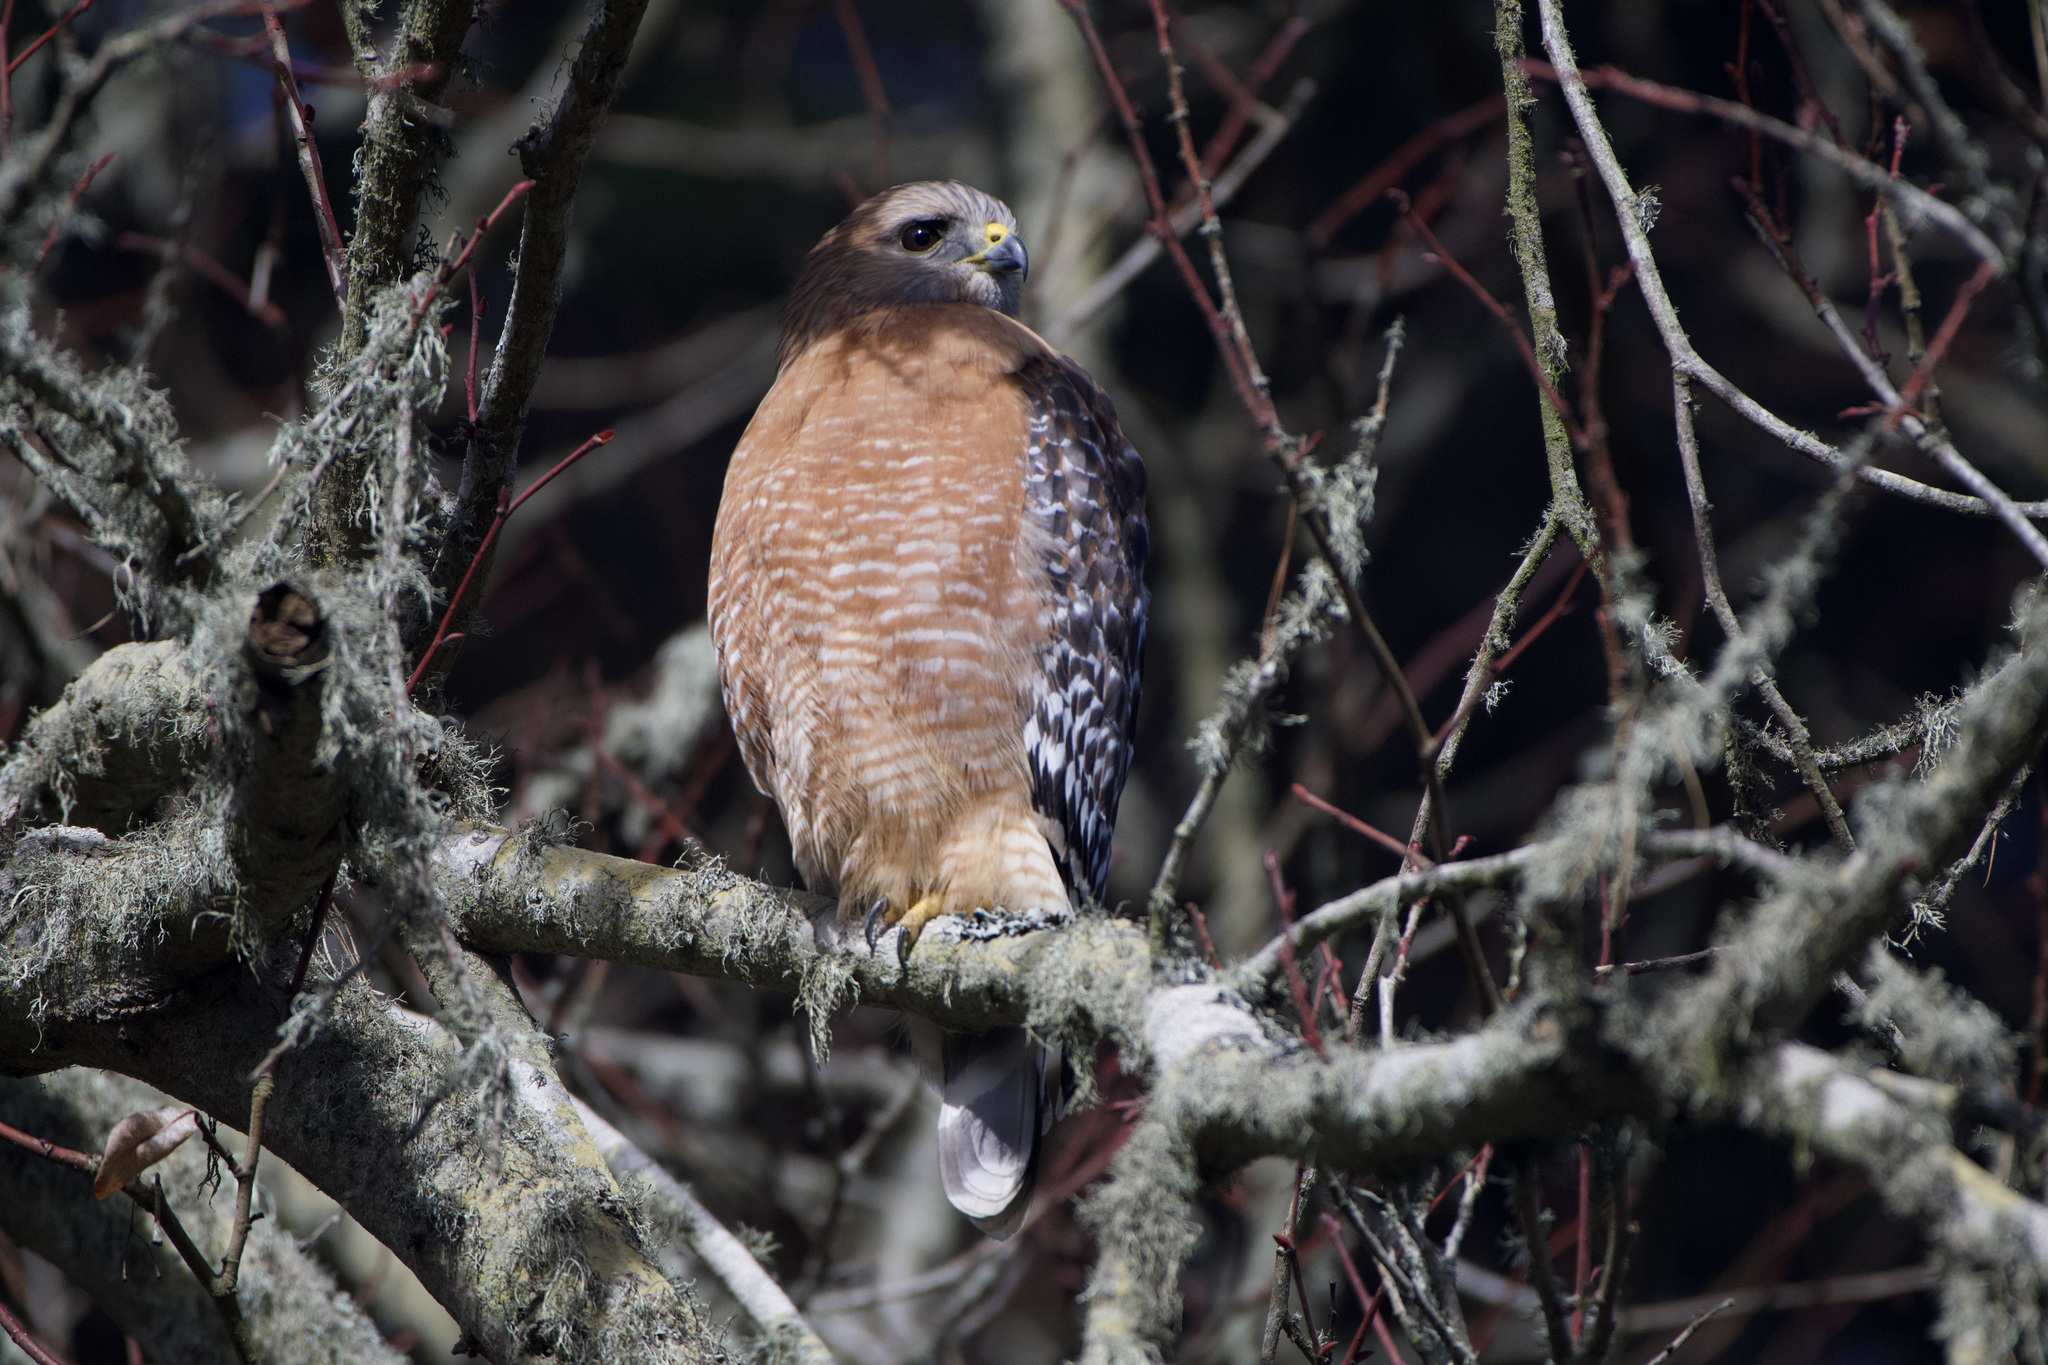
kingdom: Animalia
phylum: Chordata
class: Aves
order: Accipitriformes
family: Accipitridae
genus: Buteo
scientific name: Buteo lineatus
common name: Red-shouldered hawk
